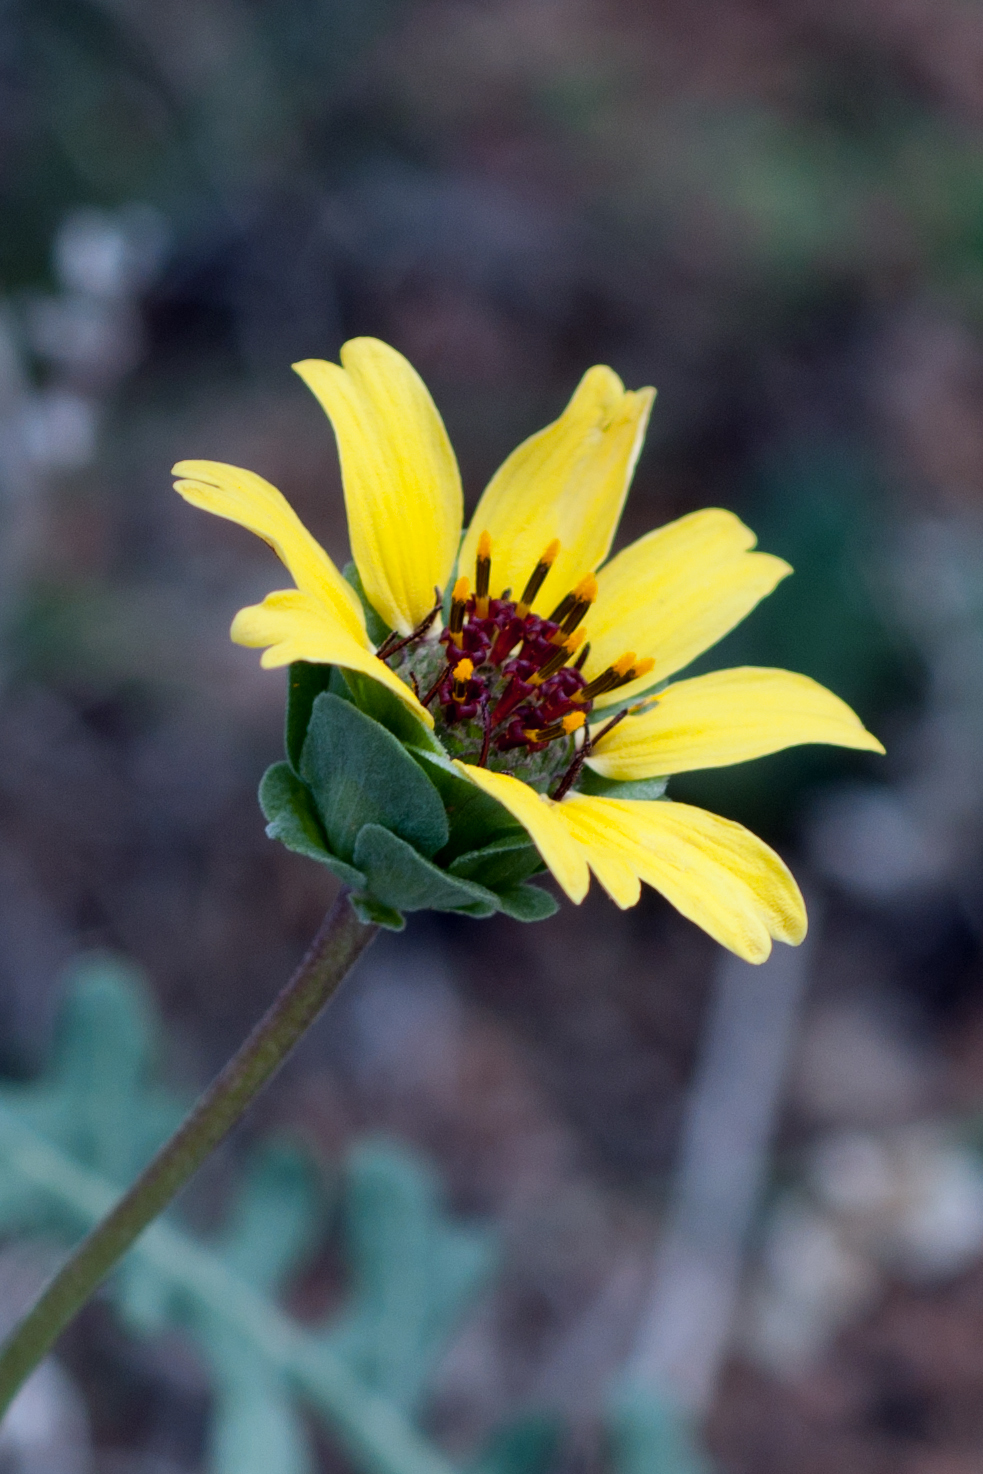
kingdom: Plantae
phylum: Tracheophyta
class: Magnoliopsida
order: Asterales
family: Asteraceae
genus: Berlandiera
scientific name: Berlandiera lyrata
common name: Chocolate-flower
